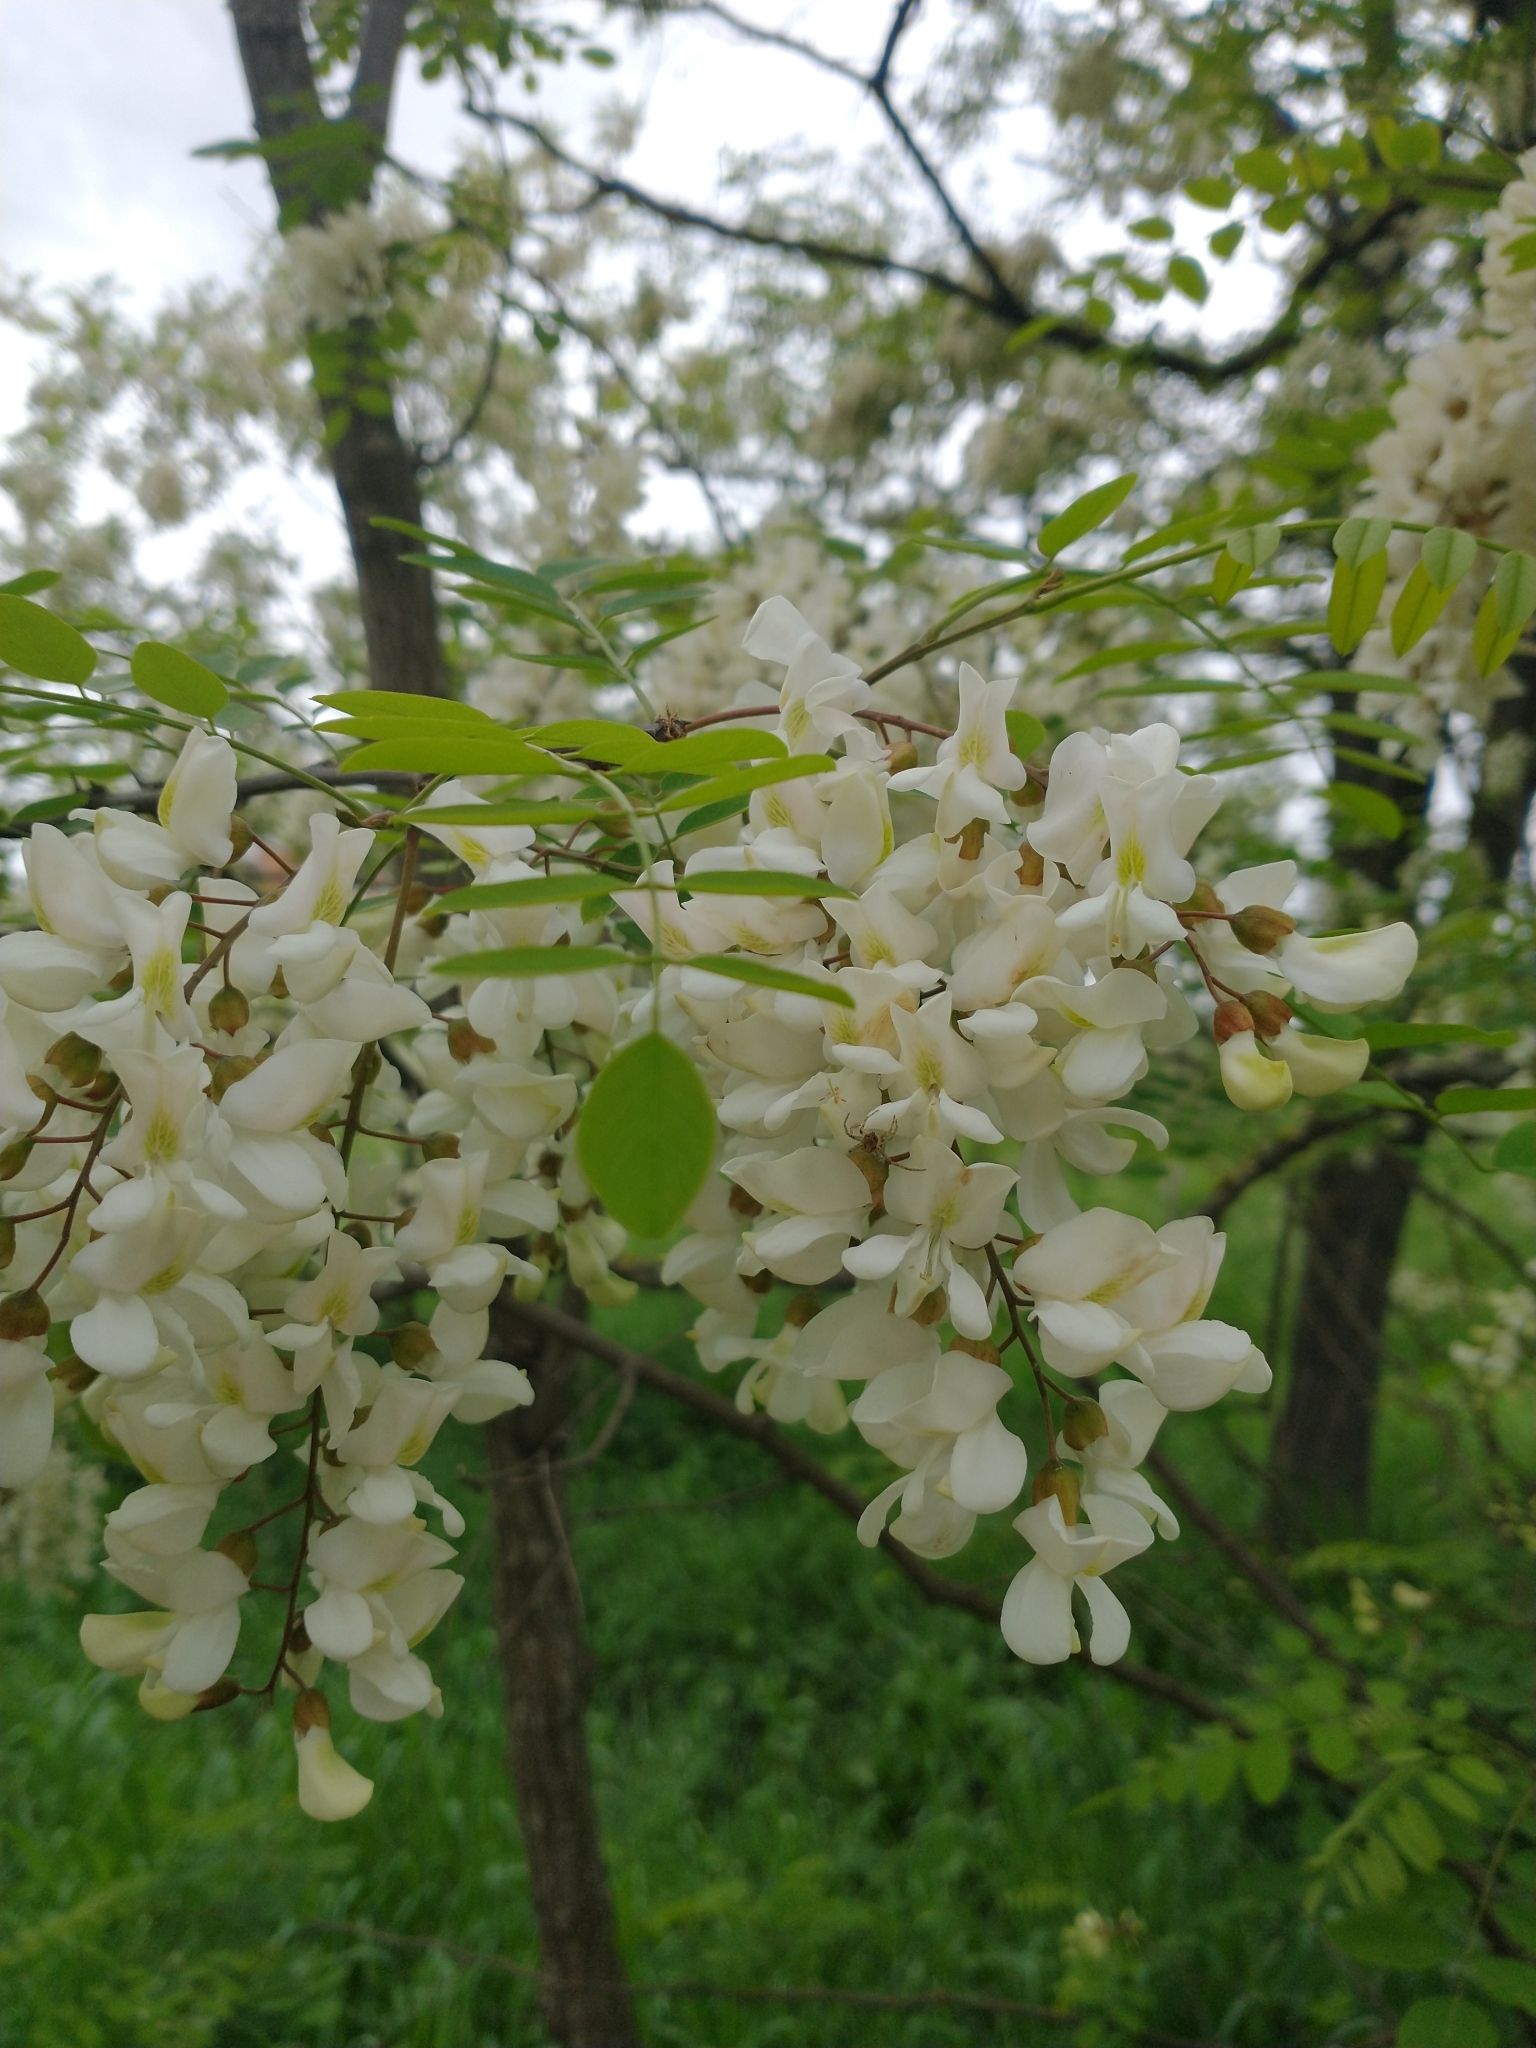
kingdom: Plantae
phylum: Tracheophyta
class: Magnoliopsida
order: Fabales
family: Fabaceae
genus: Robinia
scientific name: Robinia pseudoacacia
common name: Black locust
